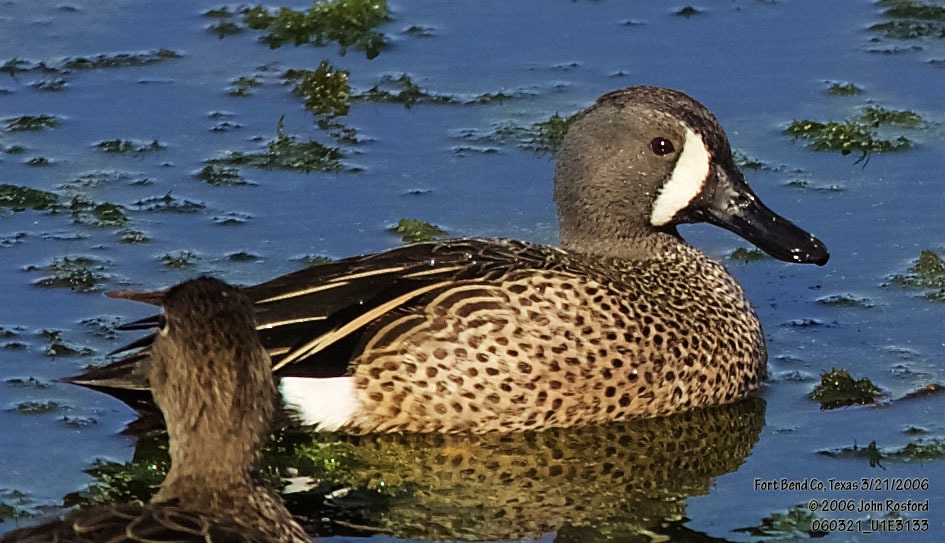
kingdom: Animalia
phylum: Chordata
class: Aves
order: Anseriformes
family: Anatidae
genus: Spatula
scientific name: Spatula discors
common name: Blue-winged teal
